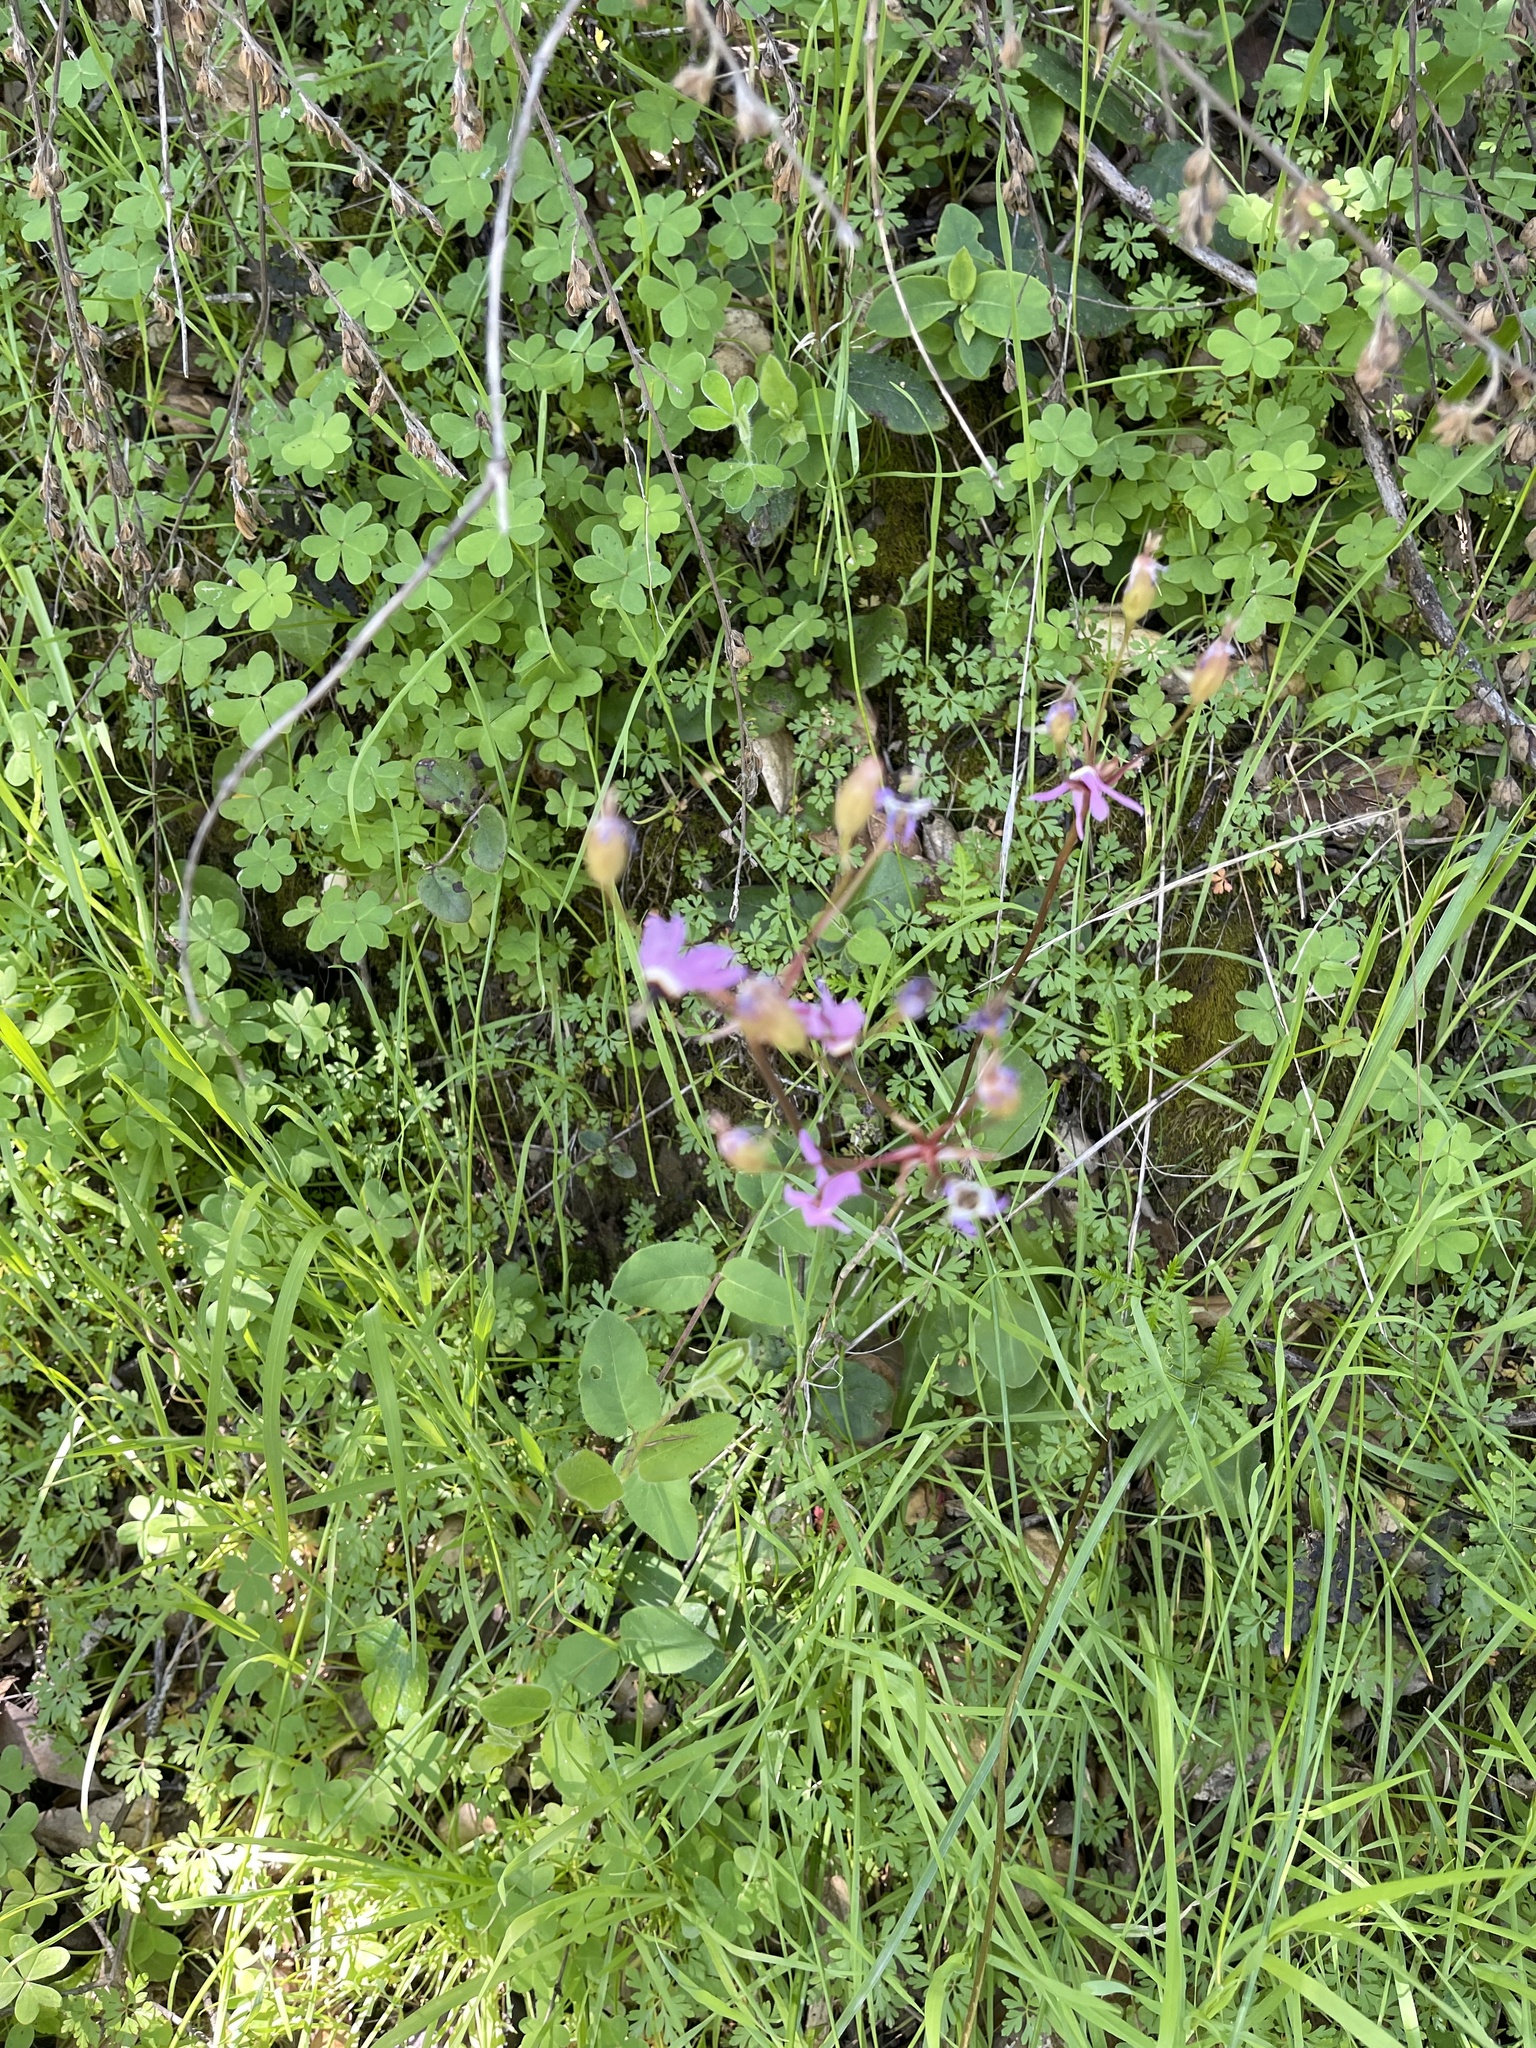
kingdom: Plantae
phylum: Tracheophyta
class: Magnoliopsida
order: Ericales
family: Primulaceae
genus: Dodecatheon
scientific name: Dodecatheon hendersonii
